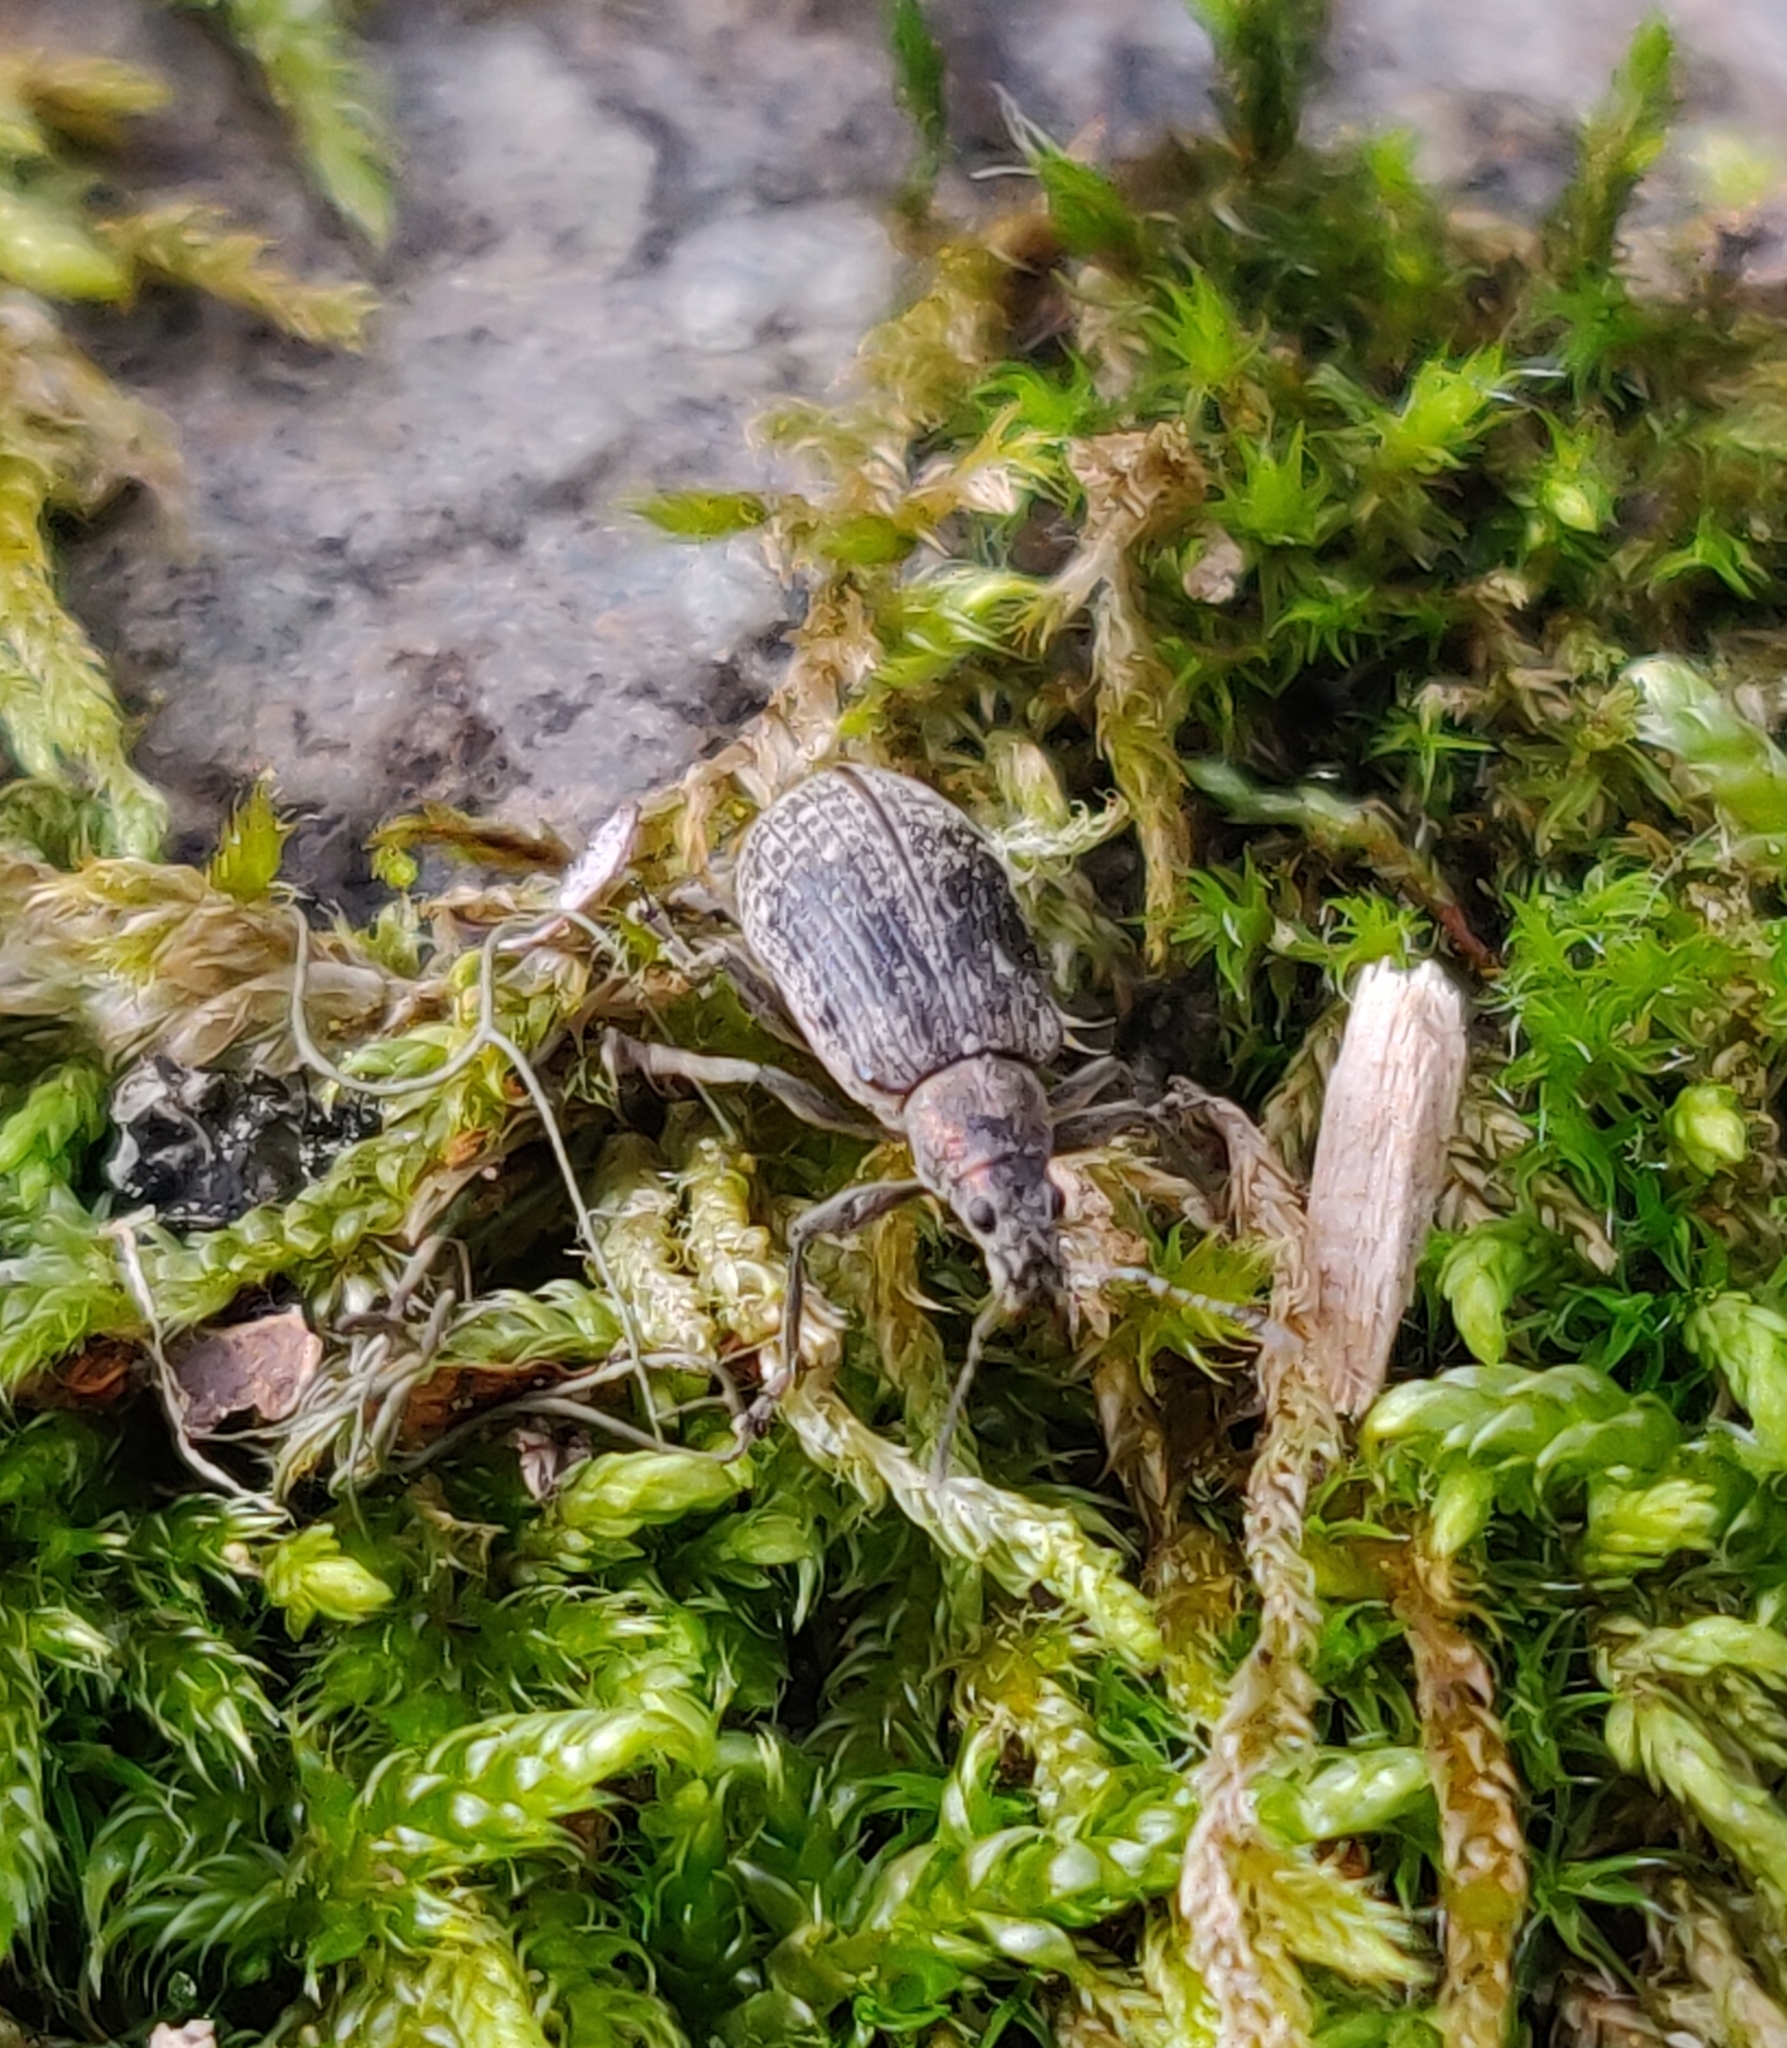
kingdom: Animalia
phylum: Arthropoda
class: Insecta
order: Coleoptera
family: Curculionidae
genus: Polydrusus
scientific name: Polydrusus pilosus
